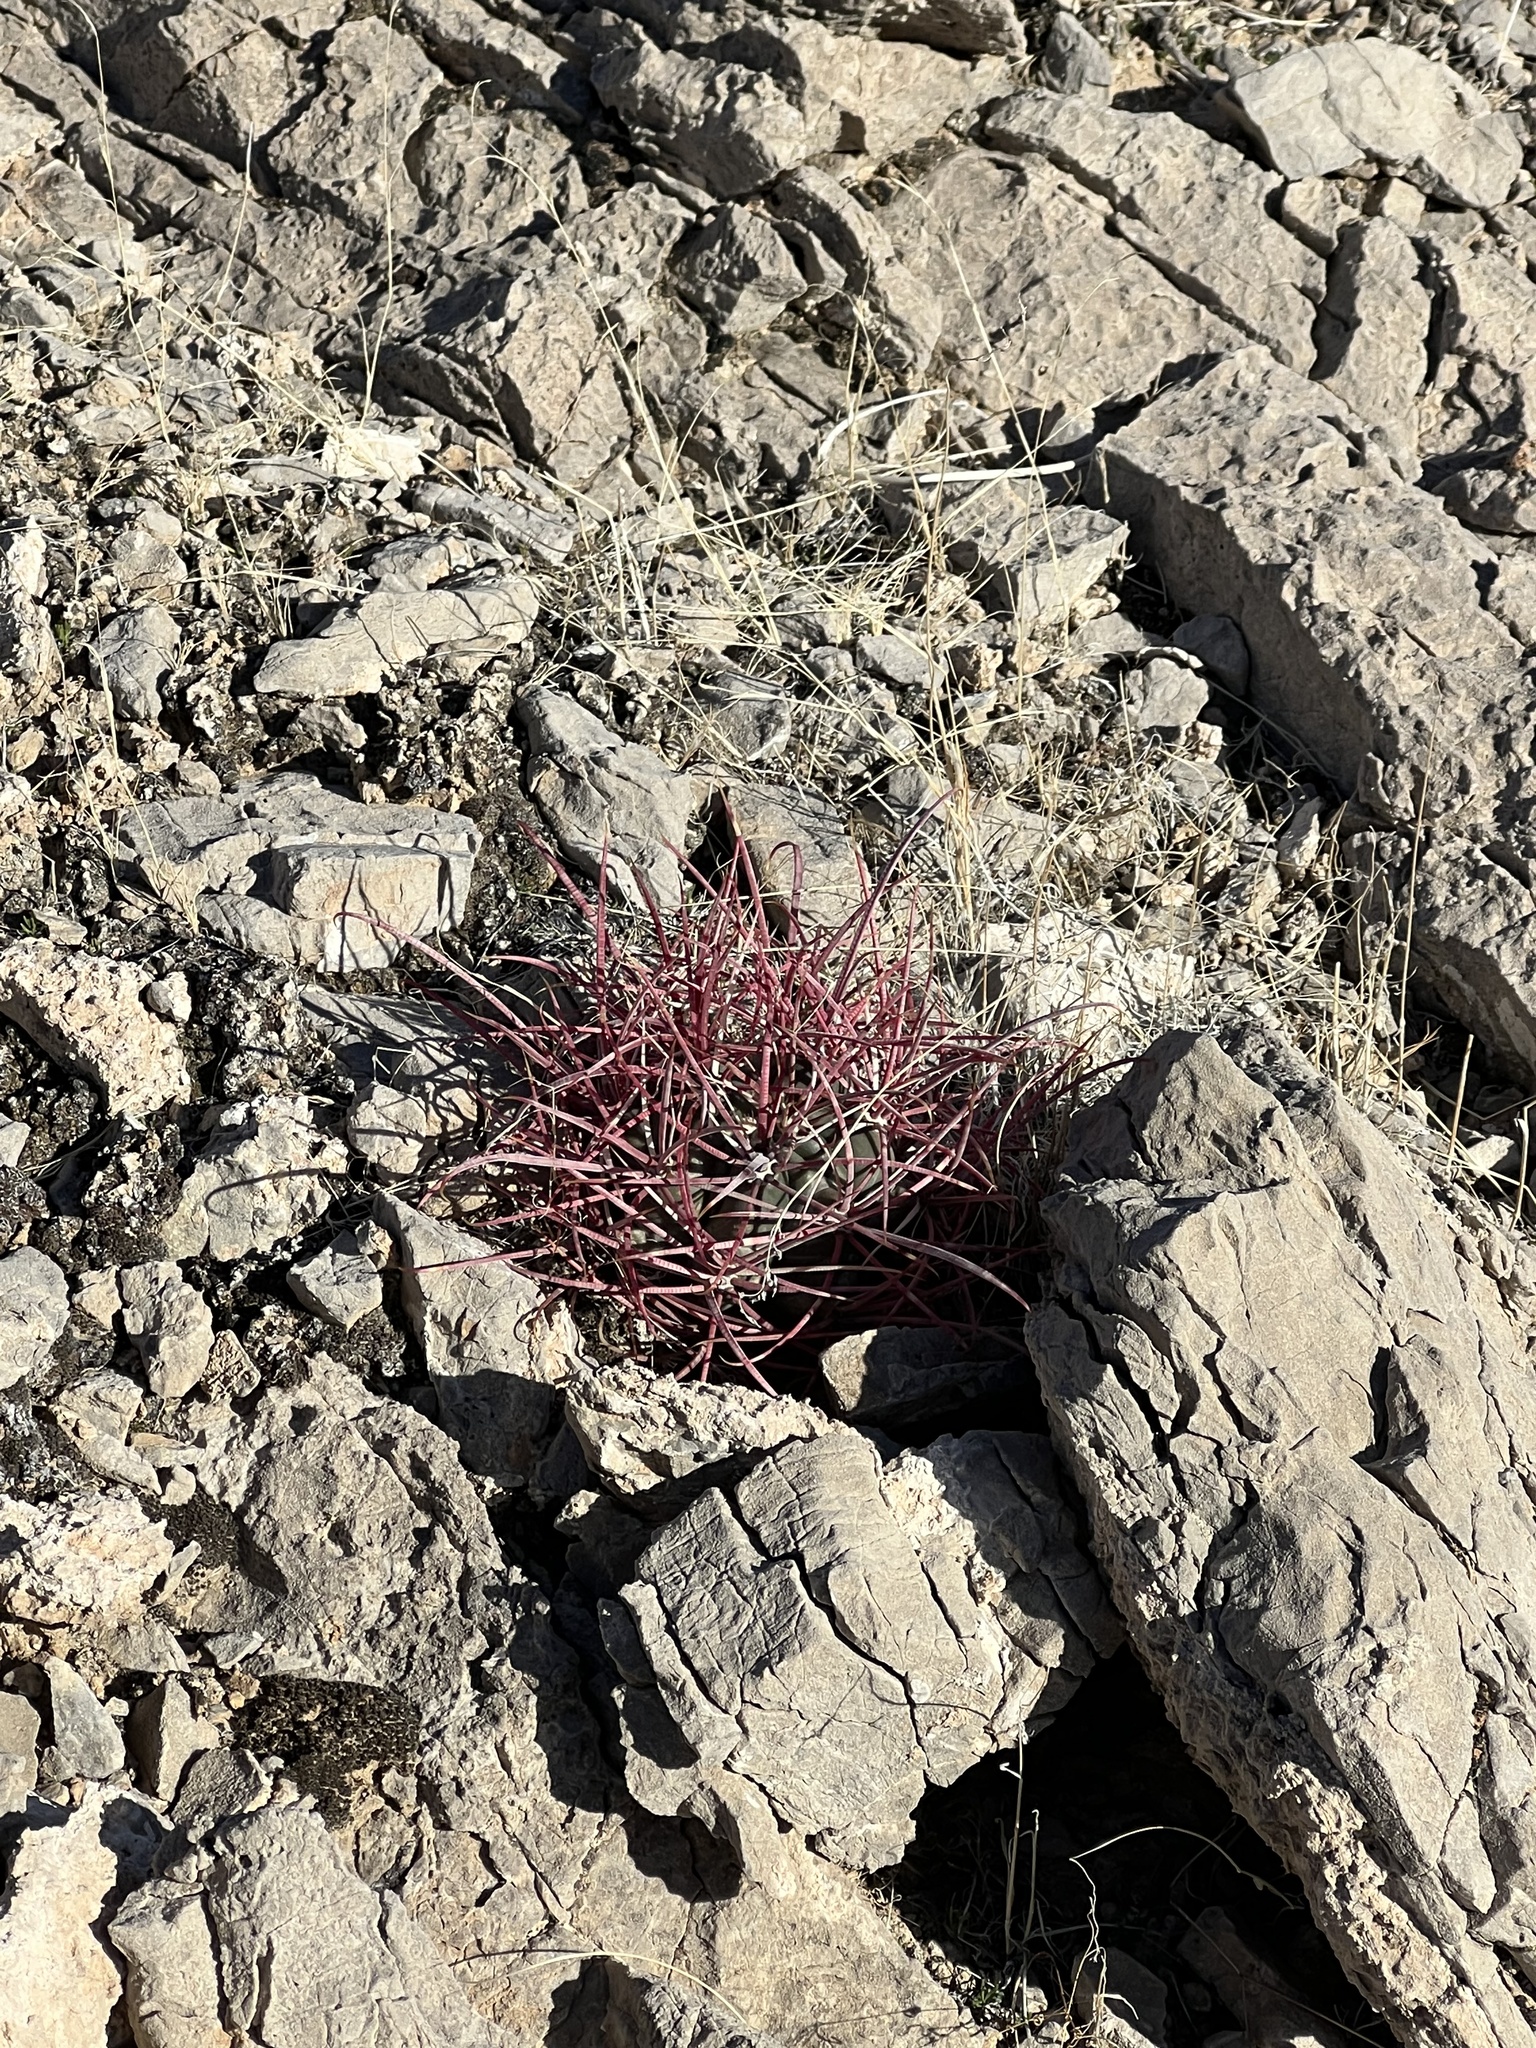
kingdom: Plantae
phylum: Tracheophyta
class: Magnoliopsida
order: Caryophyllales
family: Cactaceae
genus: Ferocactus
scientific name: Ferocactus cylindraceus
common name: California barrel cactus
